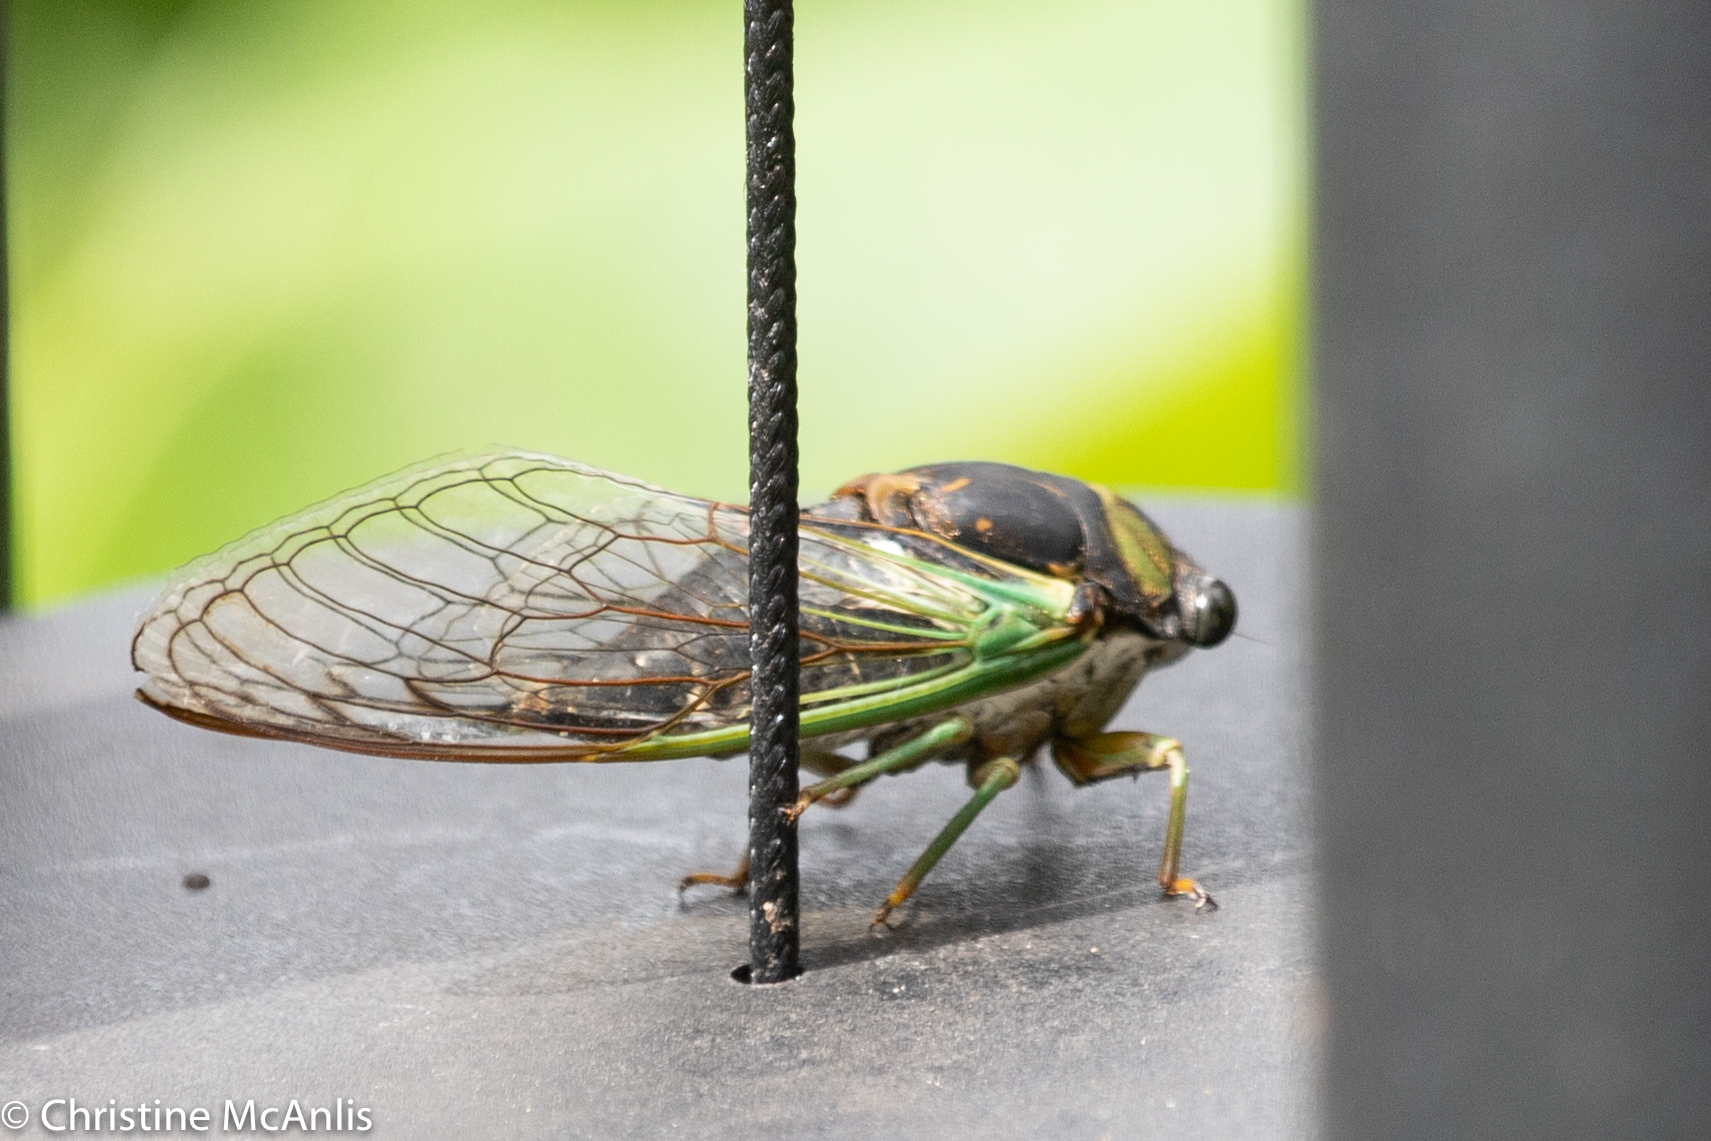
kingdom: Animalia
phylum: Arthropoda
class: Insecta
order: Hemiptera
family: Cicadidae
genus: Neotibicen
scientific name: Neotibicen tibicen
